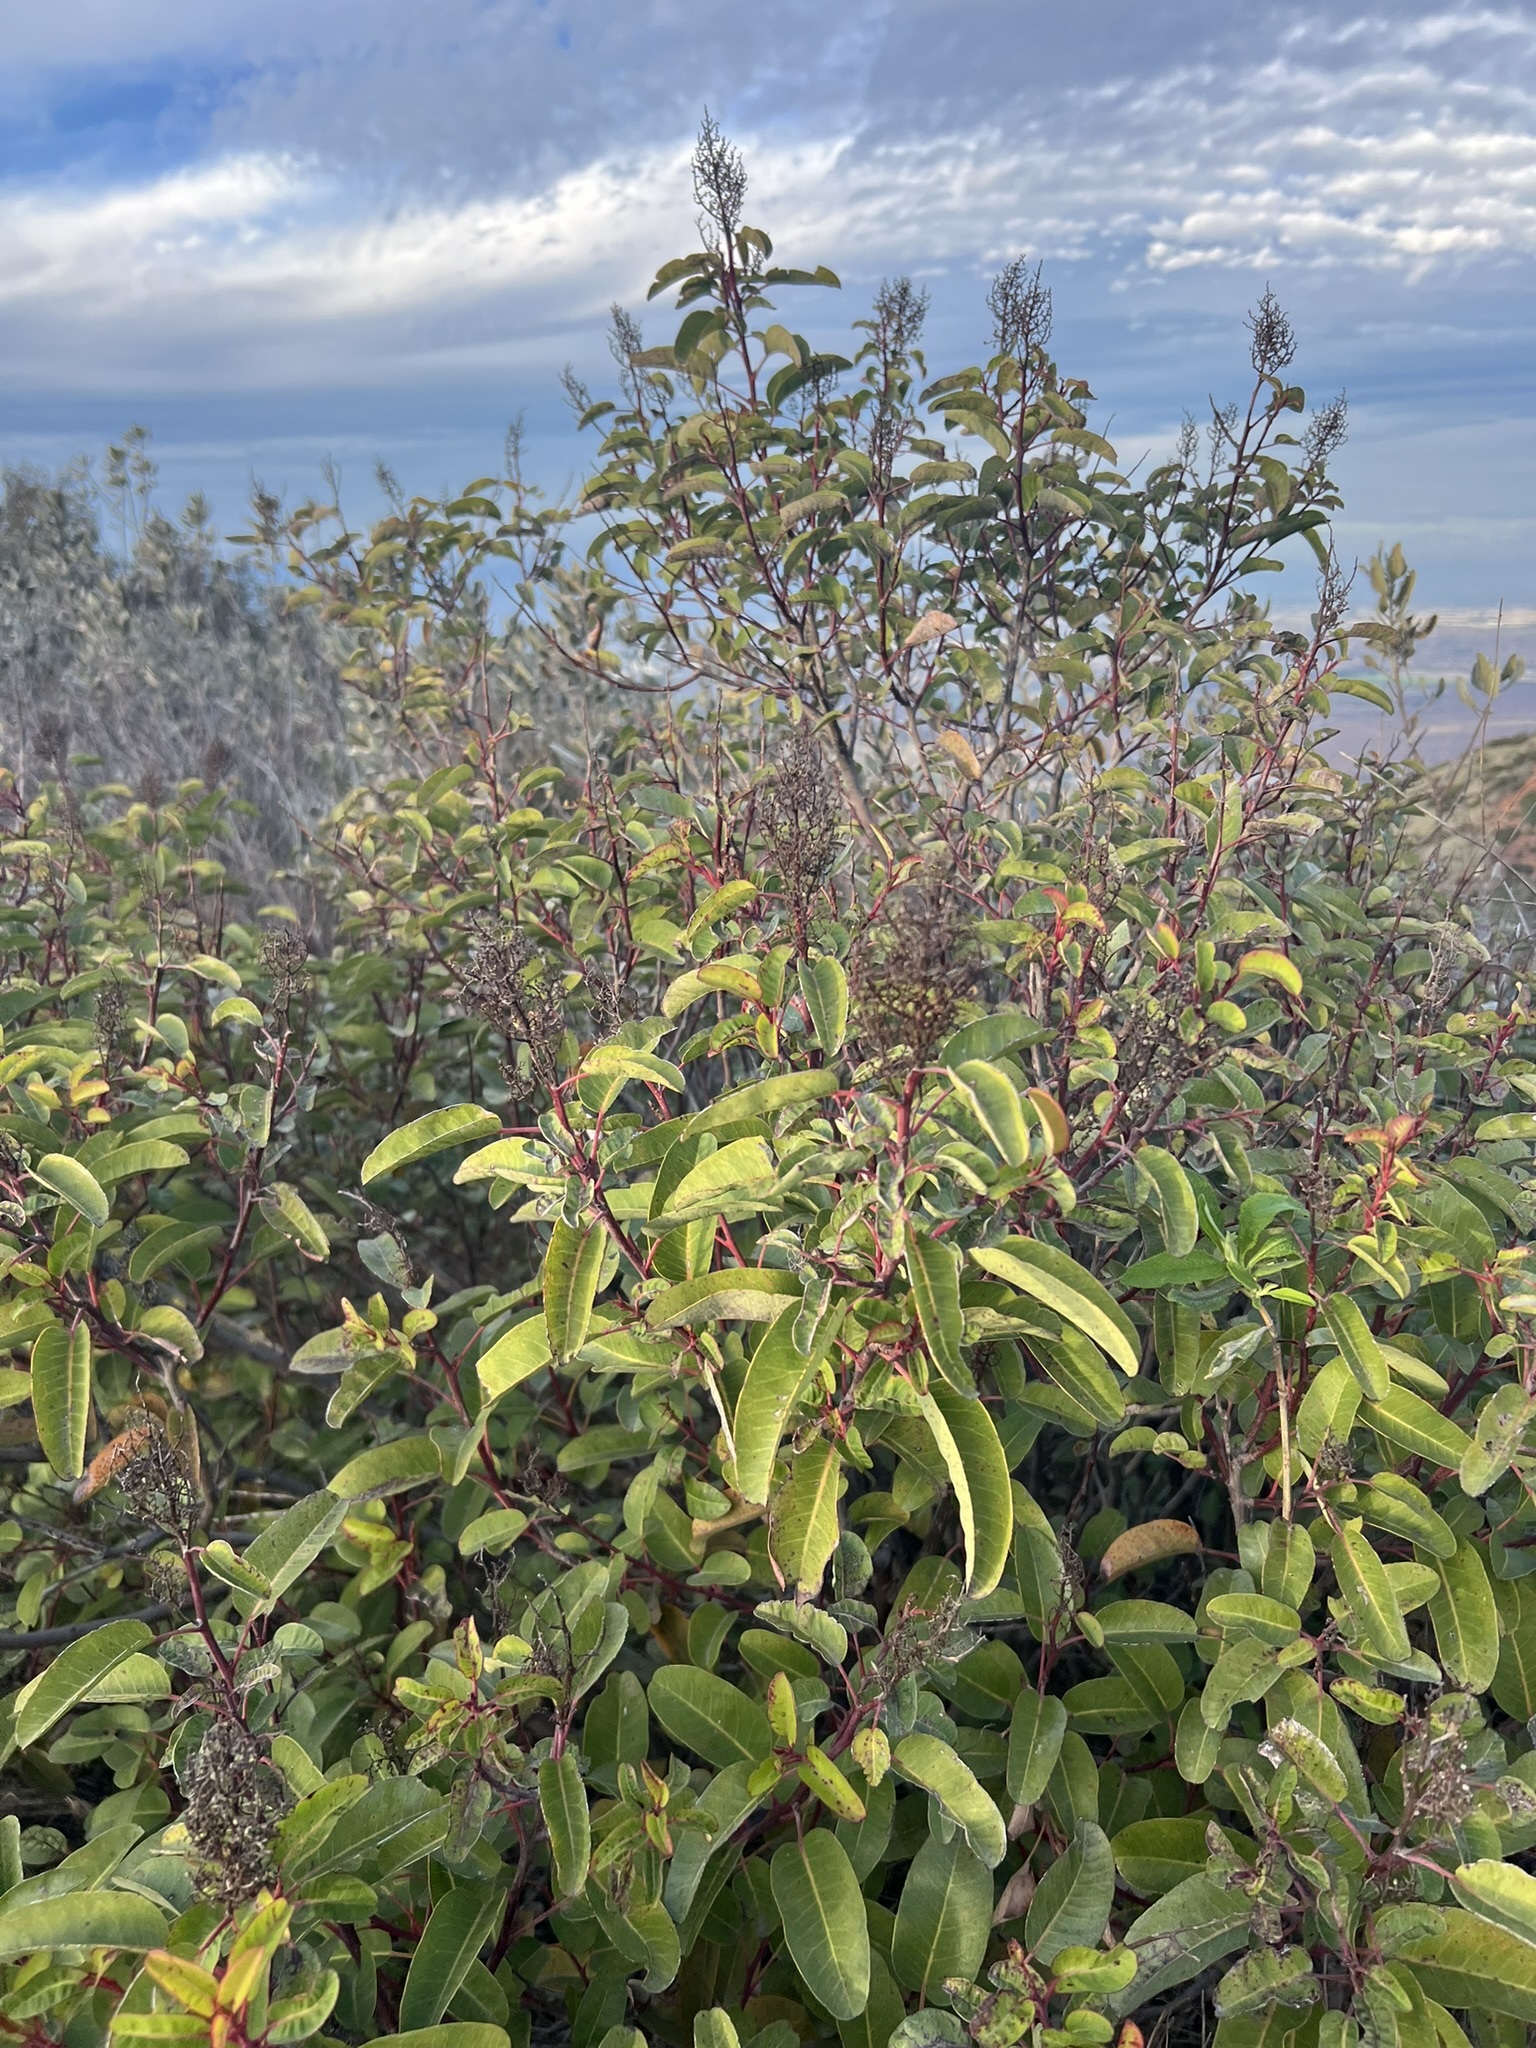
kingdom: Plantae
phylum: Tracheophyta
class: Magnoliopsida
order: Sapindales
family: Anacardiaceae
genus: Malosma
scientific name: Malosma laurina
